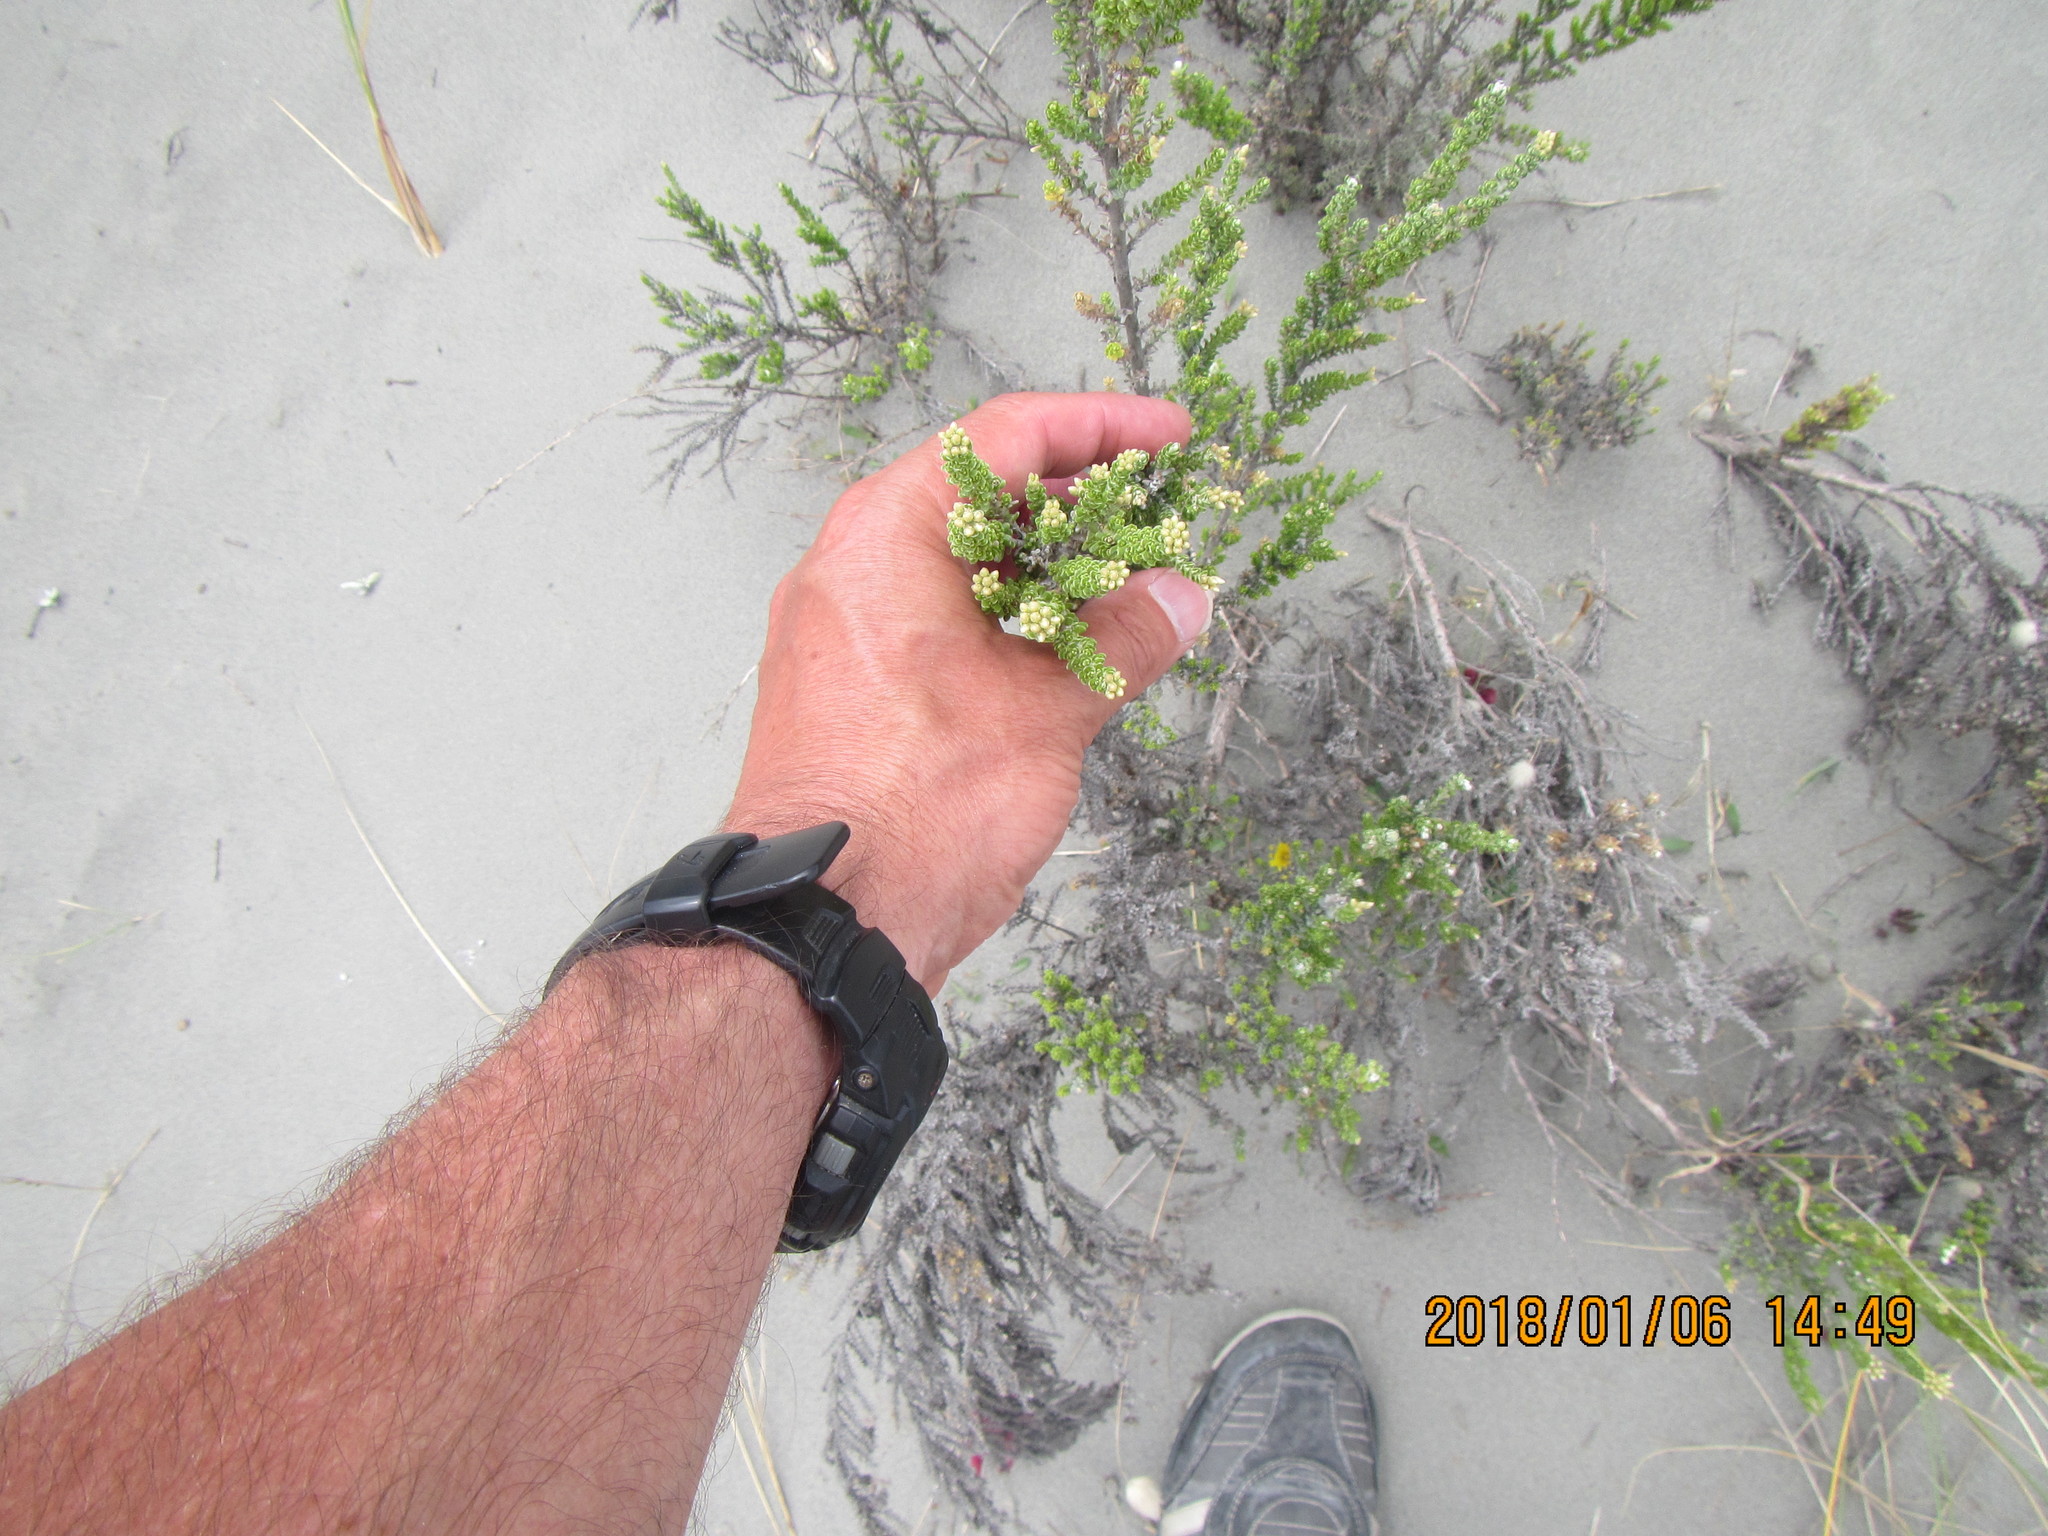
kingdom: Plantae
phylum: Tracheophyta
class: Magnoliopsida
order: Asterales
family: Asteraceae
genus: Ozothamnus
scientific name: Ozothamnus leptophyllus
